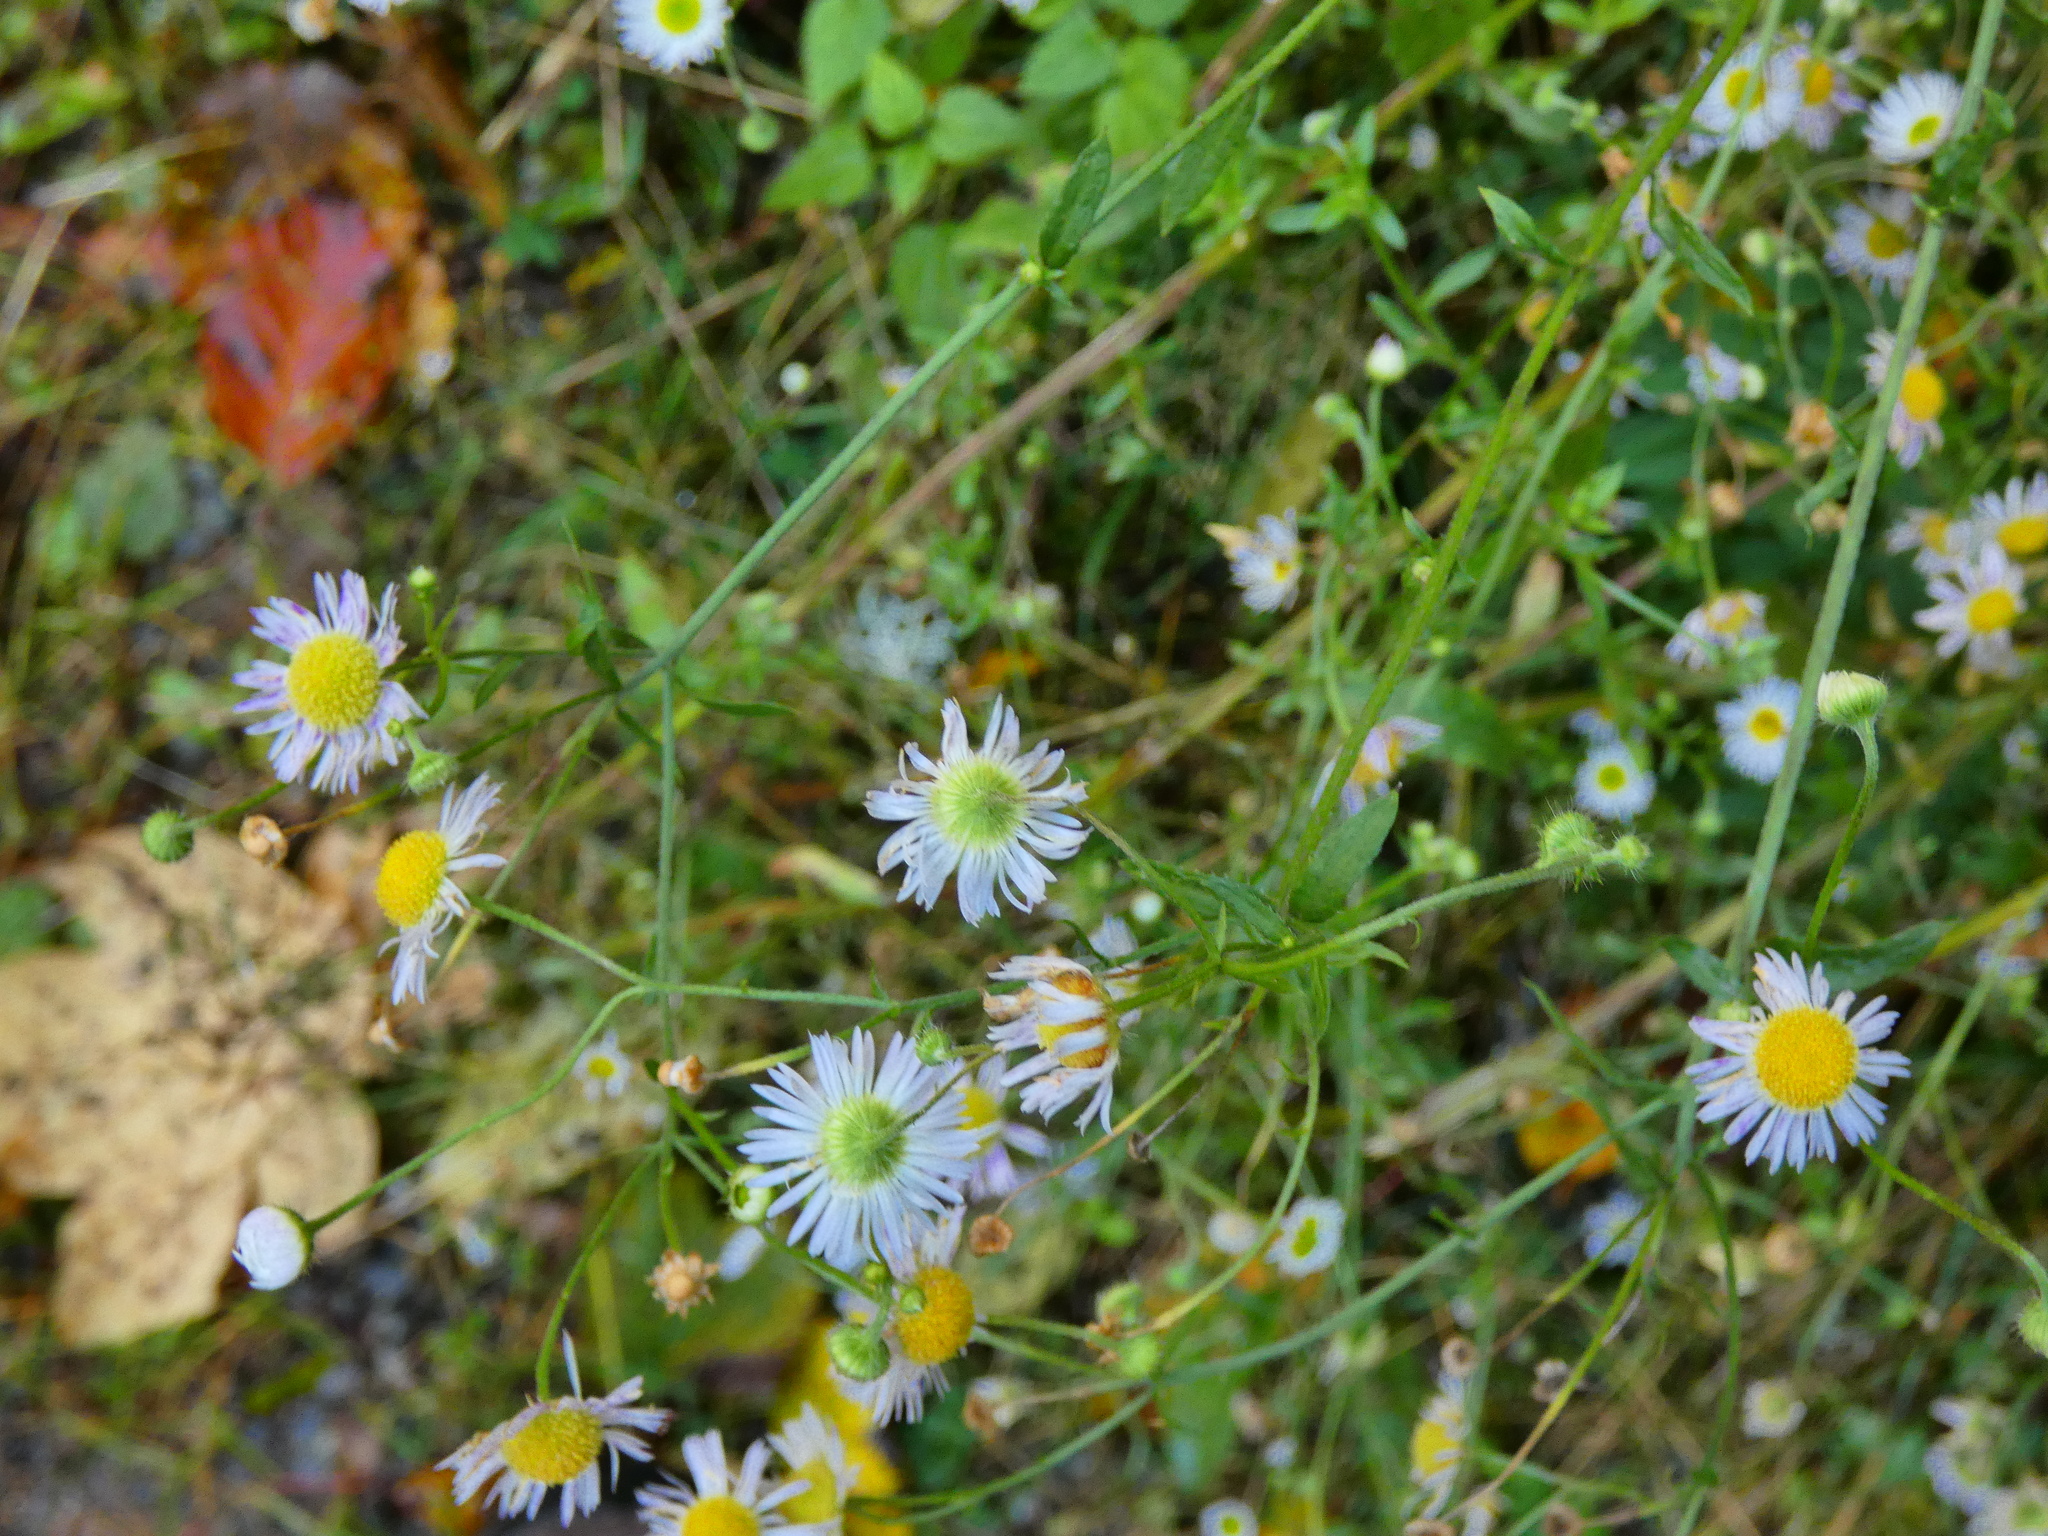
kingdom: Plantae
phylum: Tracheophyta
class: Magnoliopsida
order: Asterales
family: Asteraceae
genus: Erigeron
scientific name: Erigeron annuus
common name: Tall fleabane
